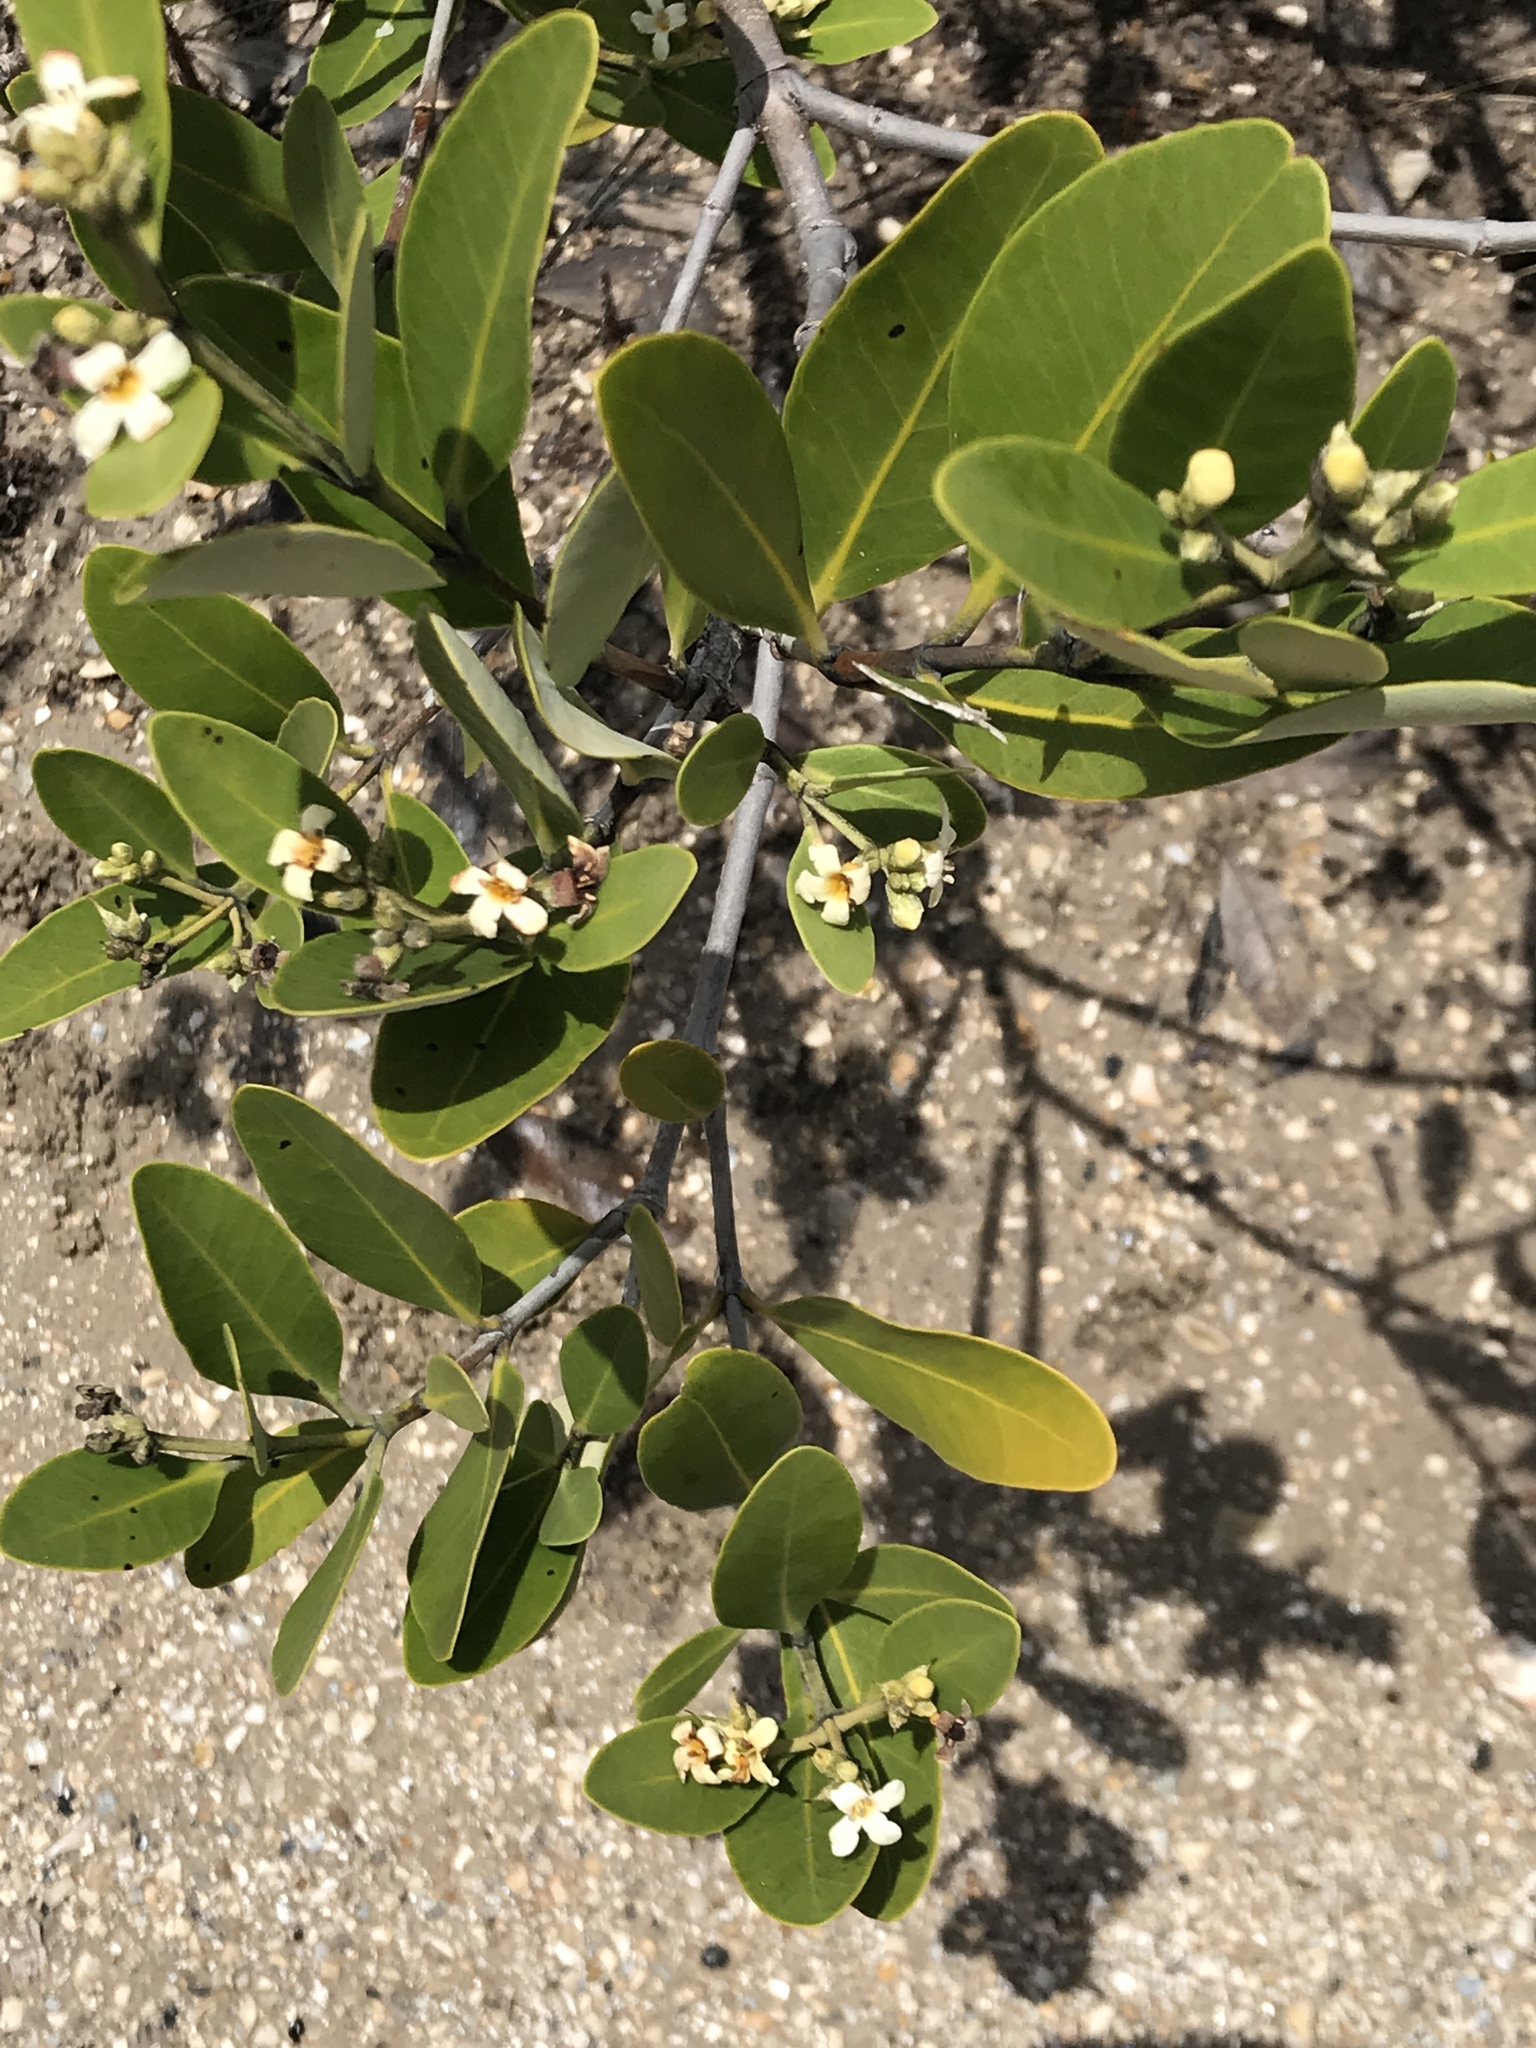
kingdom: Plantae
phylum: Tracheophyta
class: Magnoliopsida
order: Lamiales
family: Acanthaceae
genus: Avicennia
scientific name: Avicennia germinans
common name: Black mangrove
